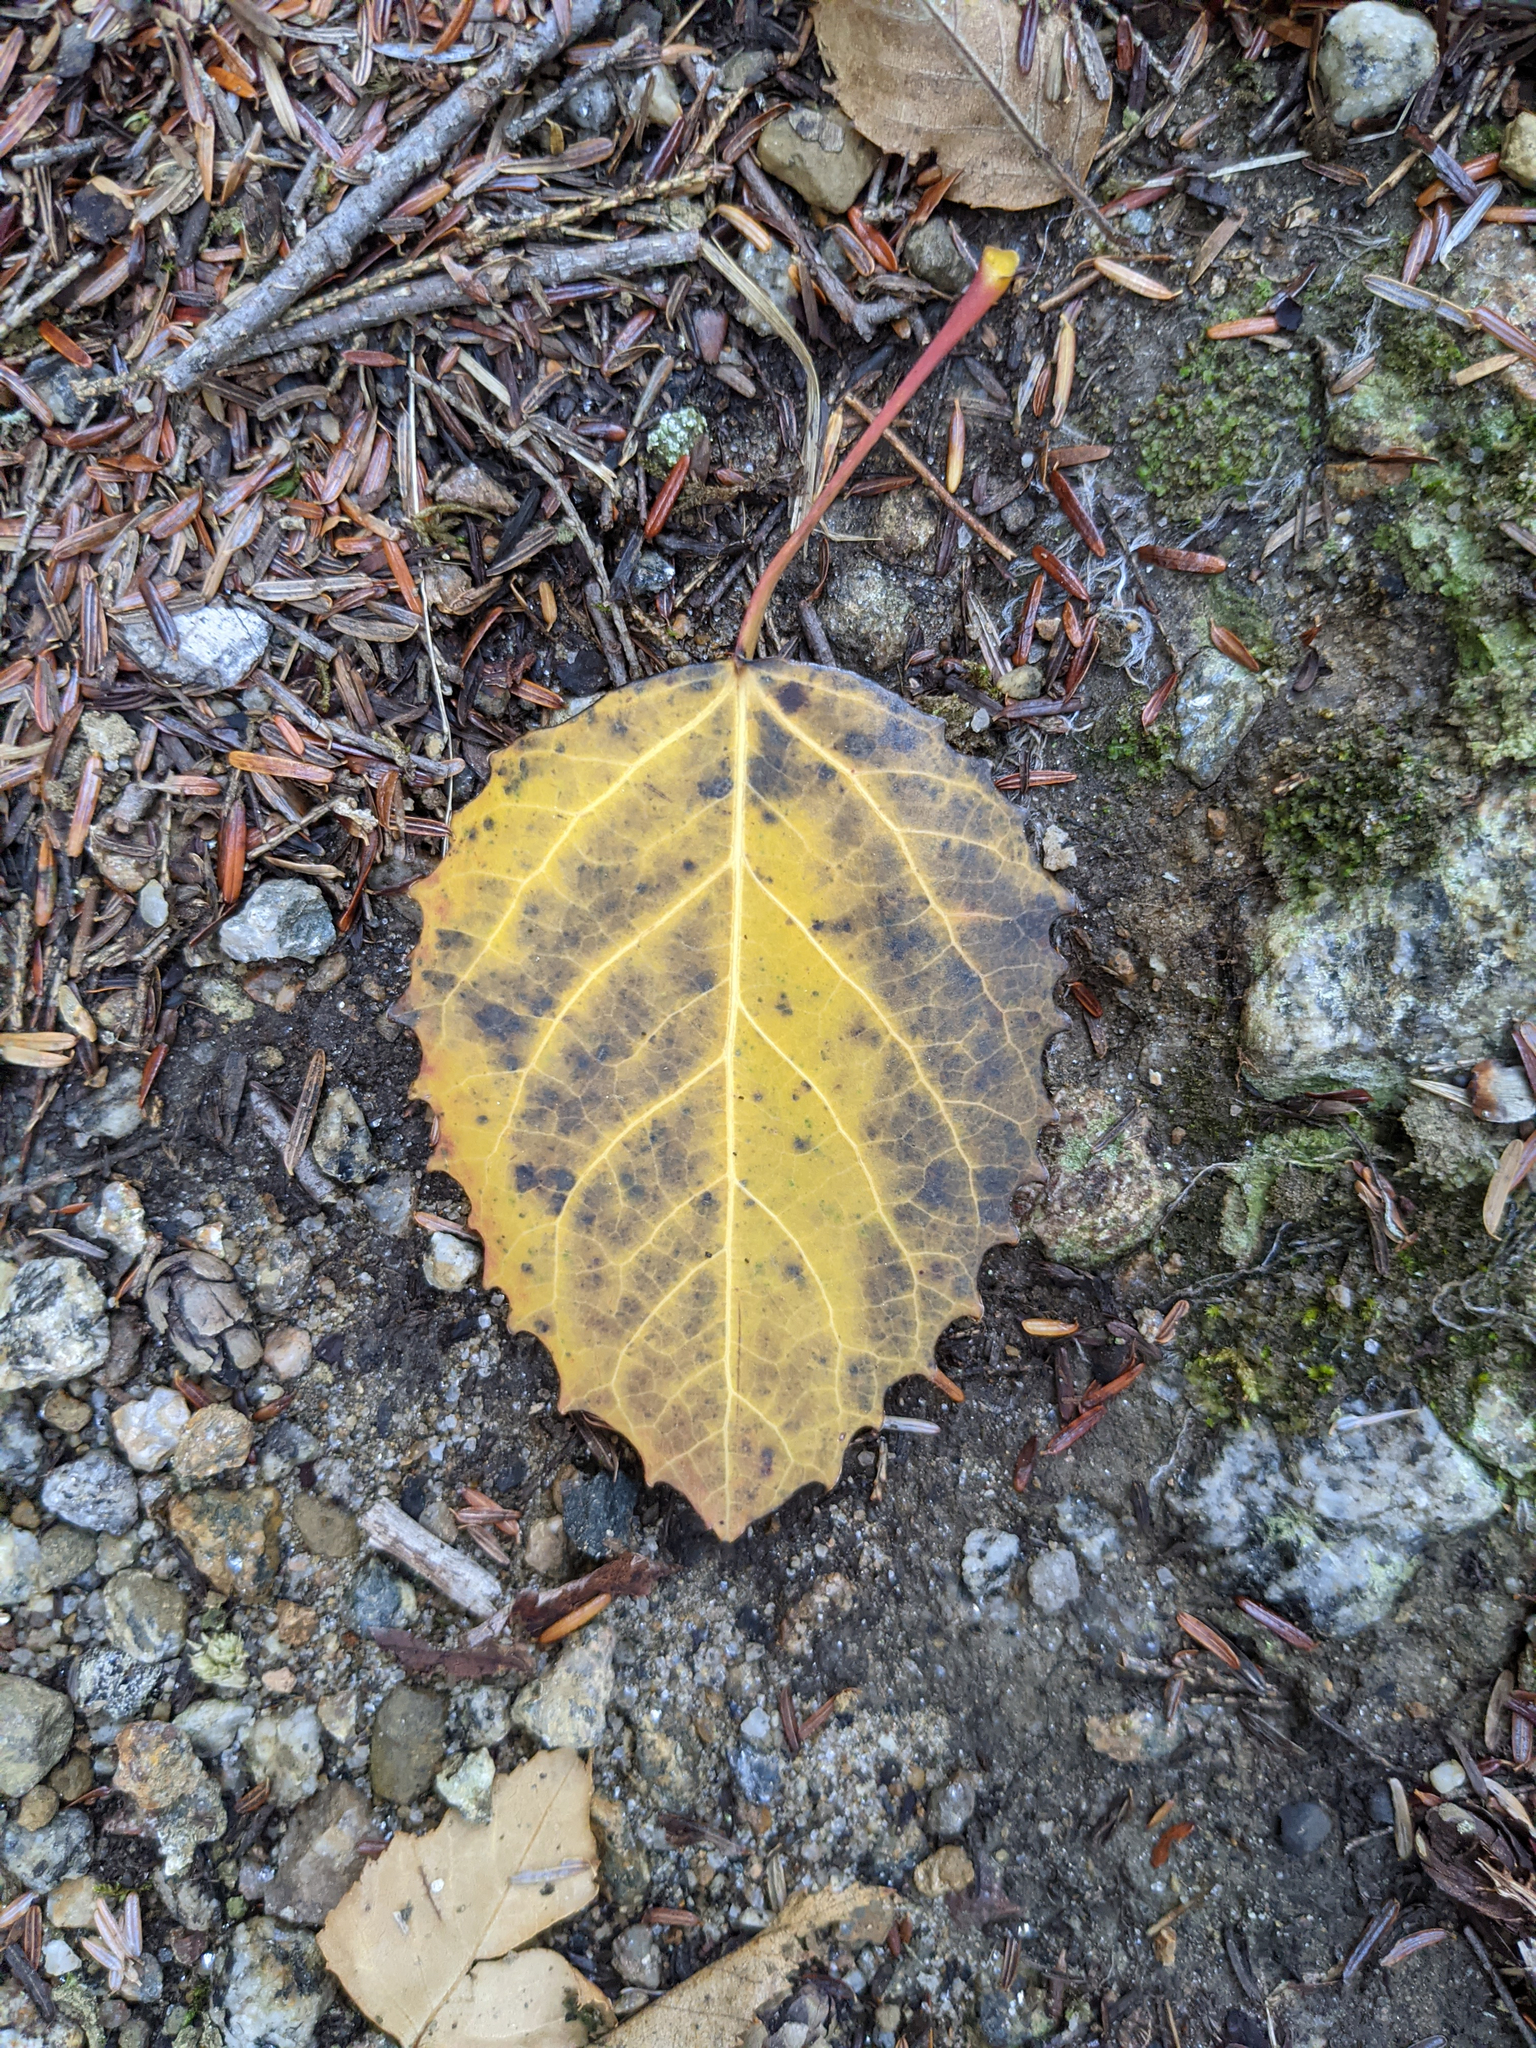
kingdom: Plantae
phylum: Tracheophyta
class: Magnoliopsida
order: Malpighiales
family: Salicaceae
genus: Populus
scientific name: Populus grandidentata
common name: Bigtooth aspen
